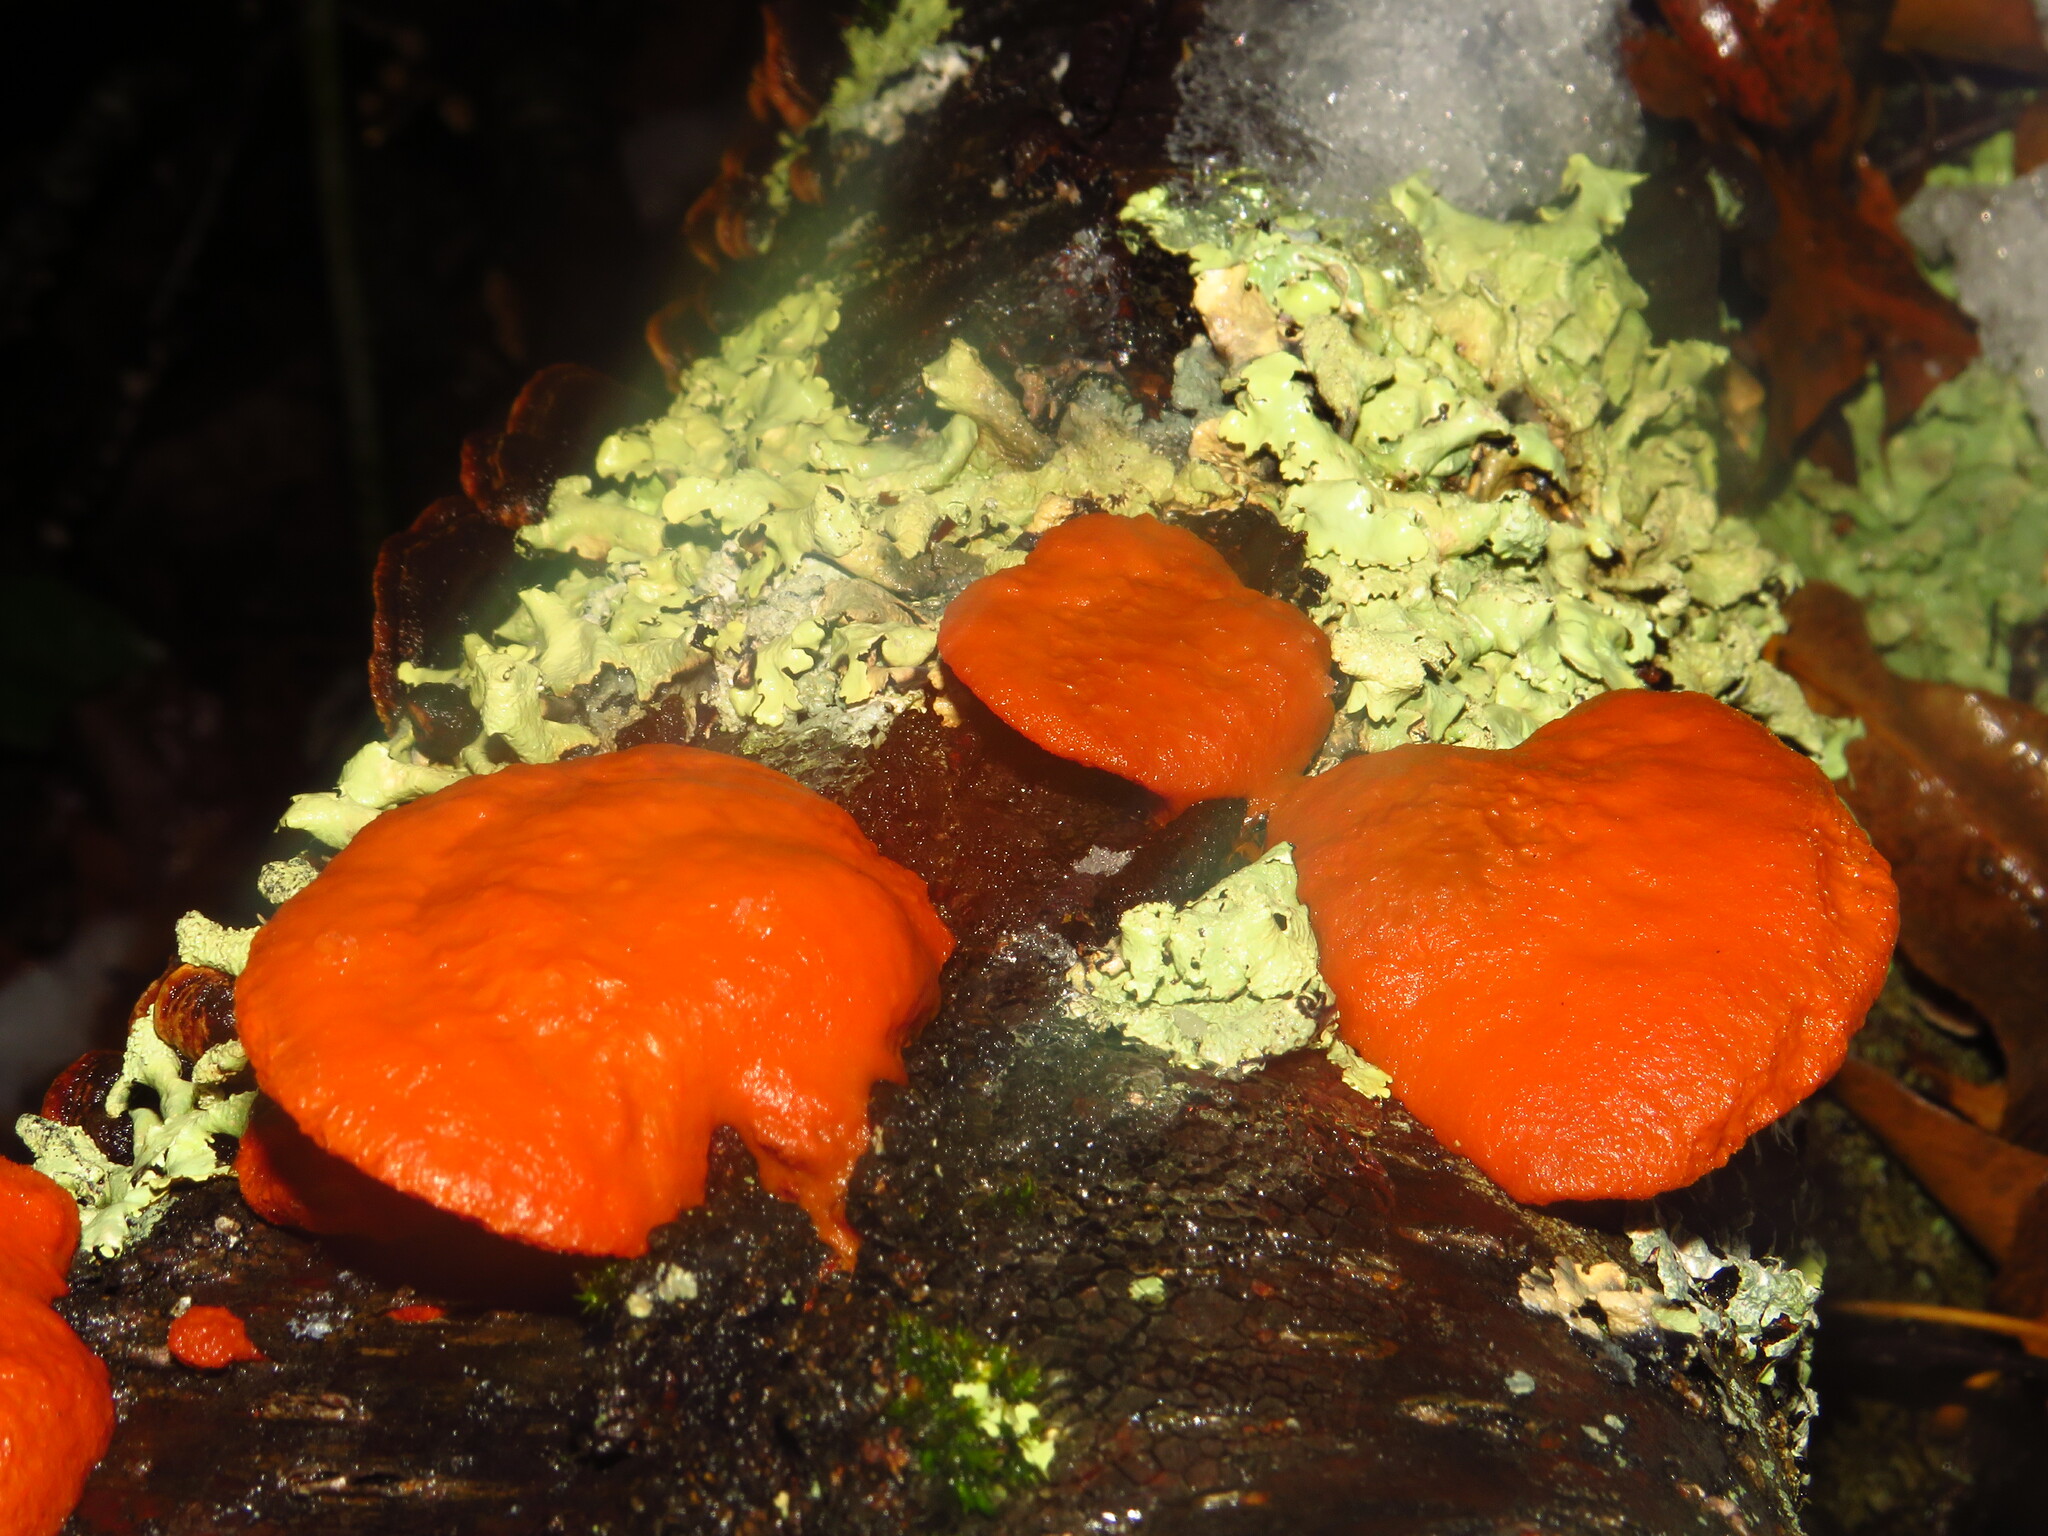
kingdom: Fungi
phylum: Basidiomycota
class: Agaricomycetes
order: Polyporales
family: Polyporaceae
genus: Trametes
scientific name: Trametes cinnabarina
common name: Northern cinnabar polypore
